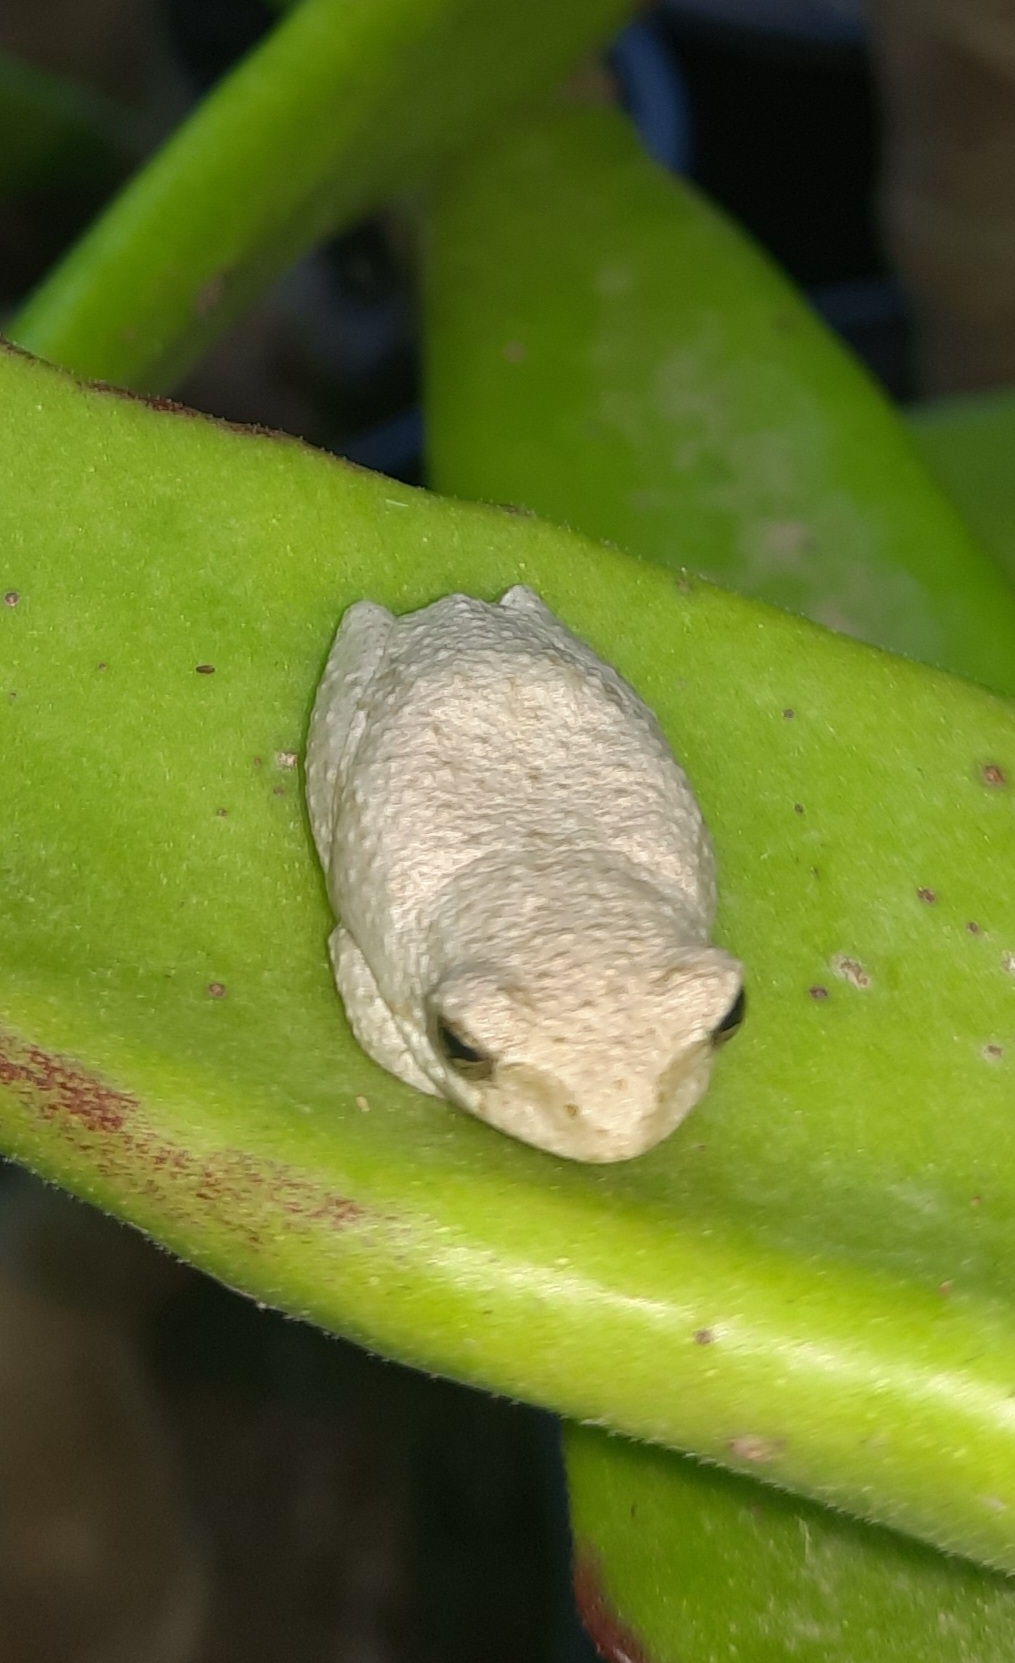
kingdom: Animalia
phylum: Chordata
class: Amphibia
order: Anura
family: Hyperoliidae
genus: Hyperolius
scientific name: Hyperolius marmoratus
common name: Painted reed frog
